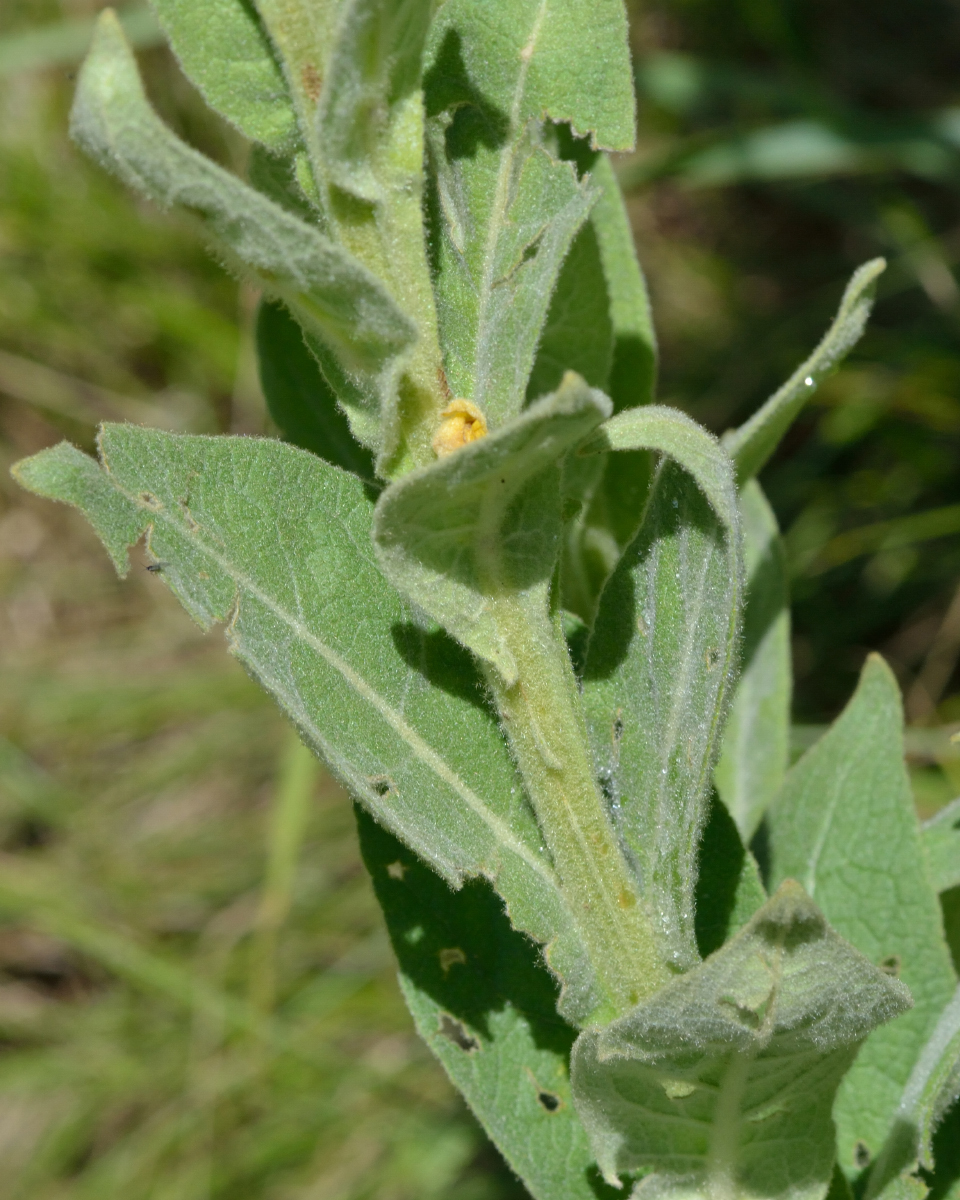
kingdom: Plantae
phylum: Tracheophyta
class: Magnoliopsida
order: Lamiales
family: Scrophulariaceae
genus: Verbascum
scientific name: Verbascum thapsus
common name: Common mullein
